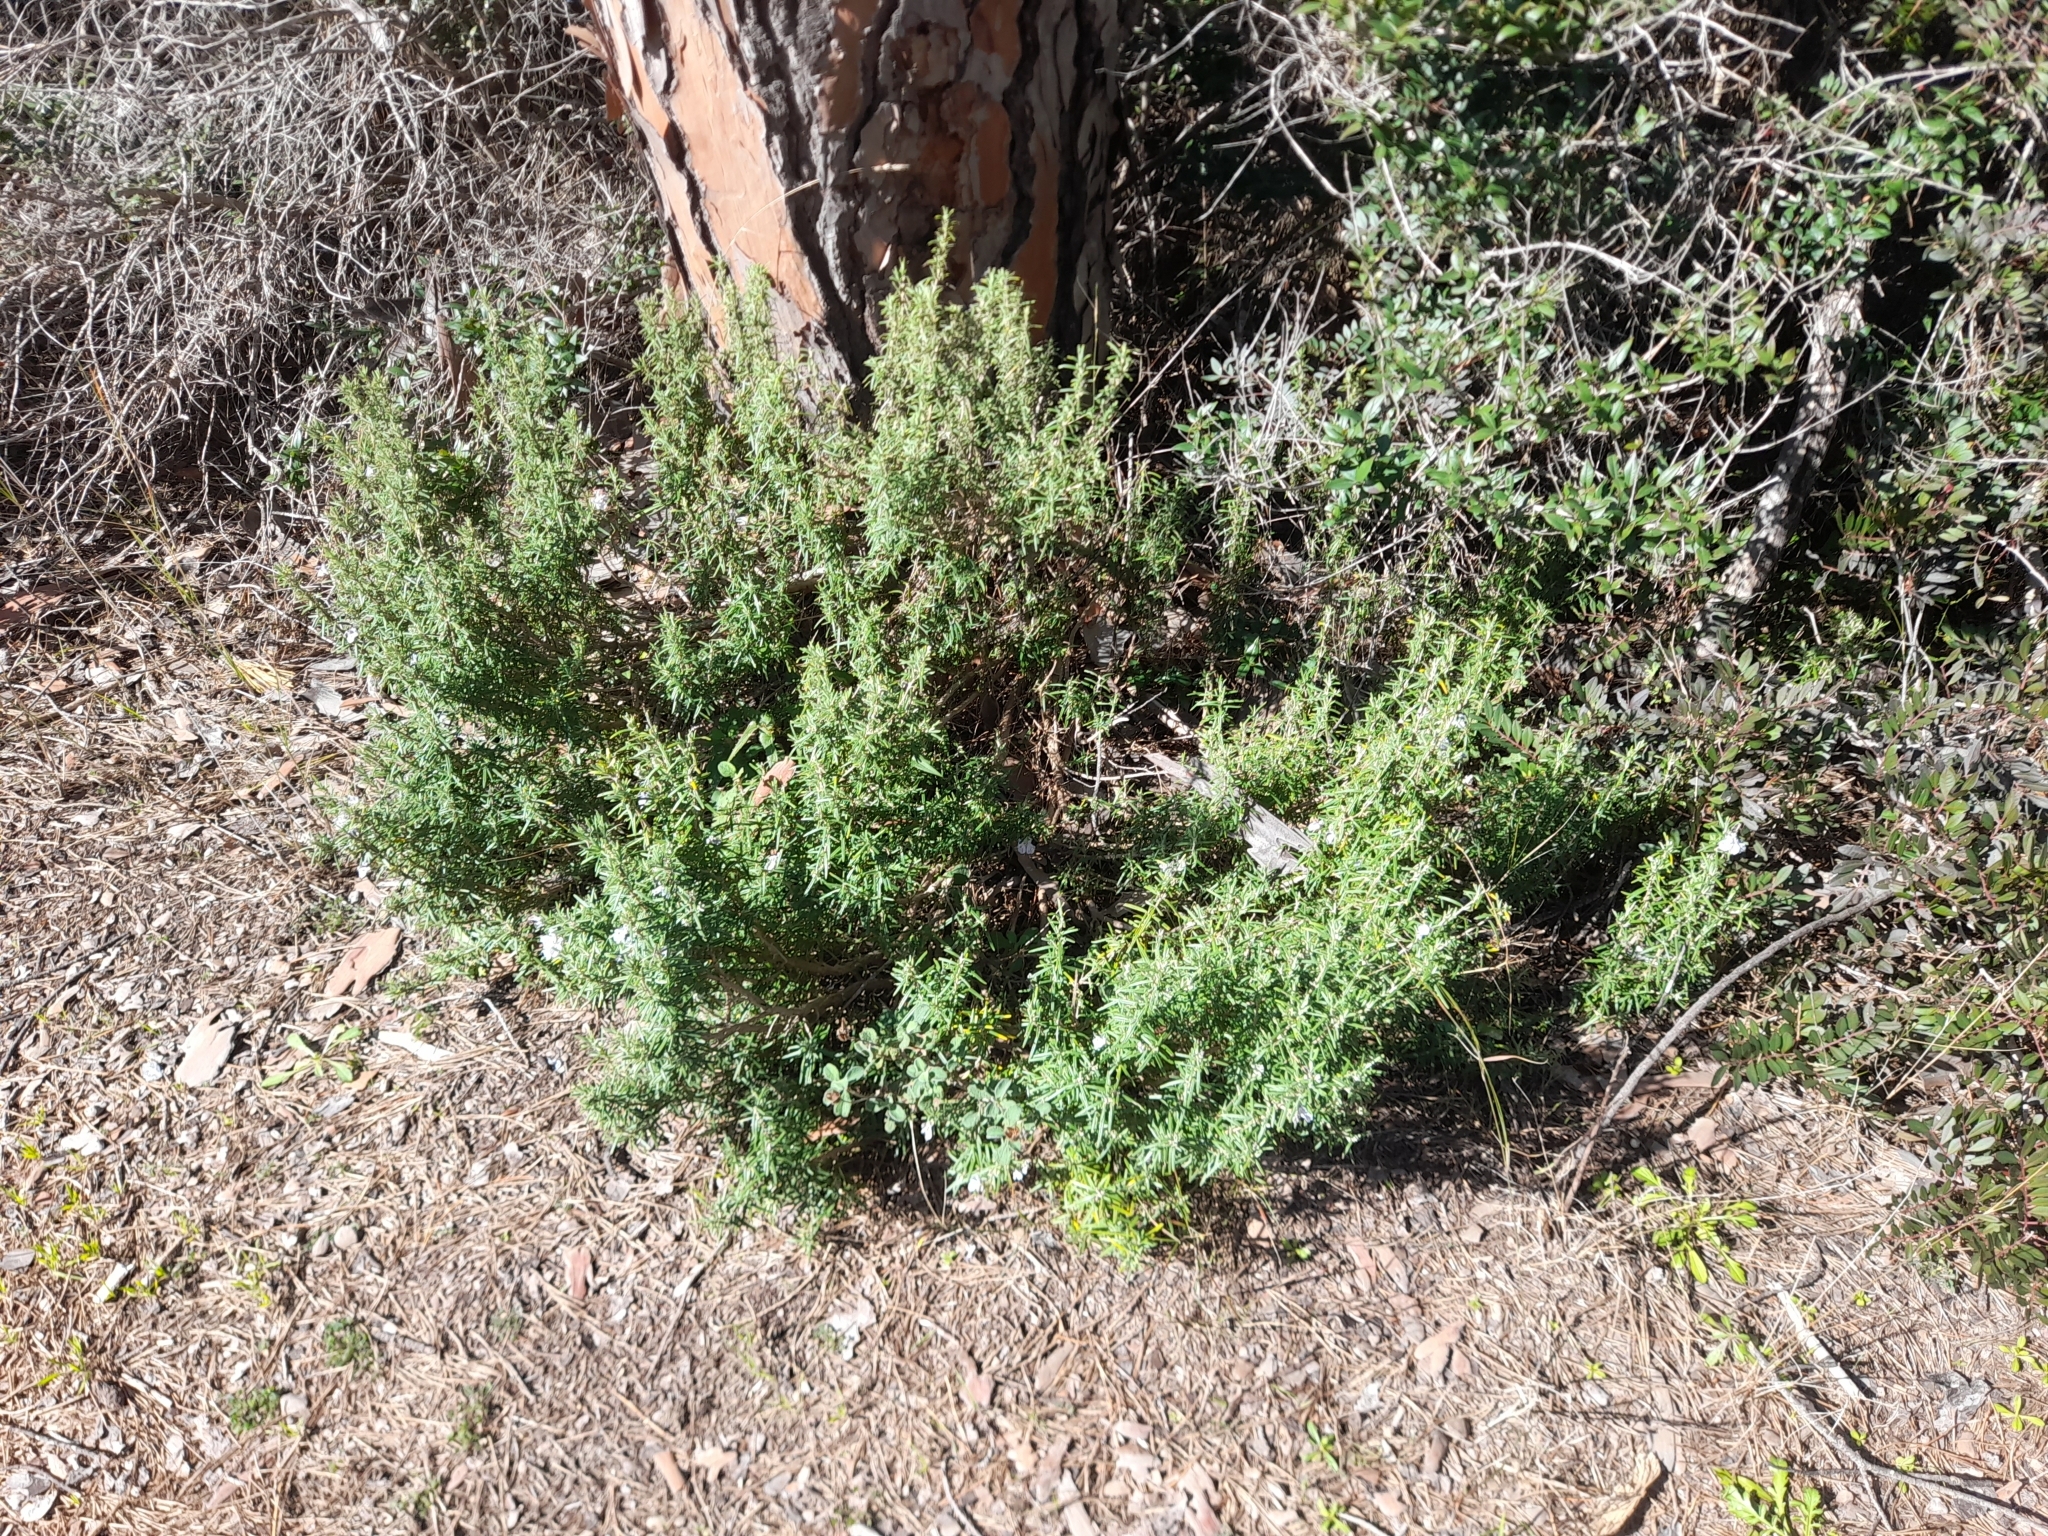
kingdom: Plantae
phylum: Tracheophyta
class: Magnoliopsida
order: Lamiales
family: Lamiaceae
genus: Salvia
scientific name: Salvia rosmarinus
